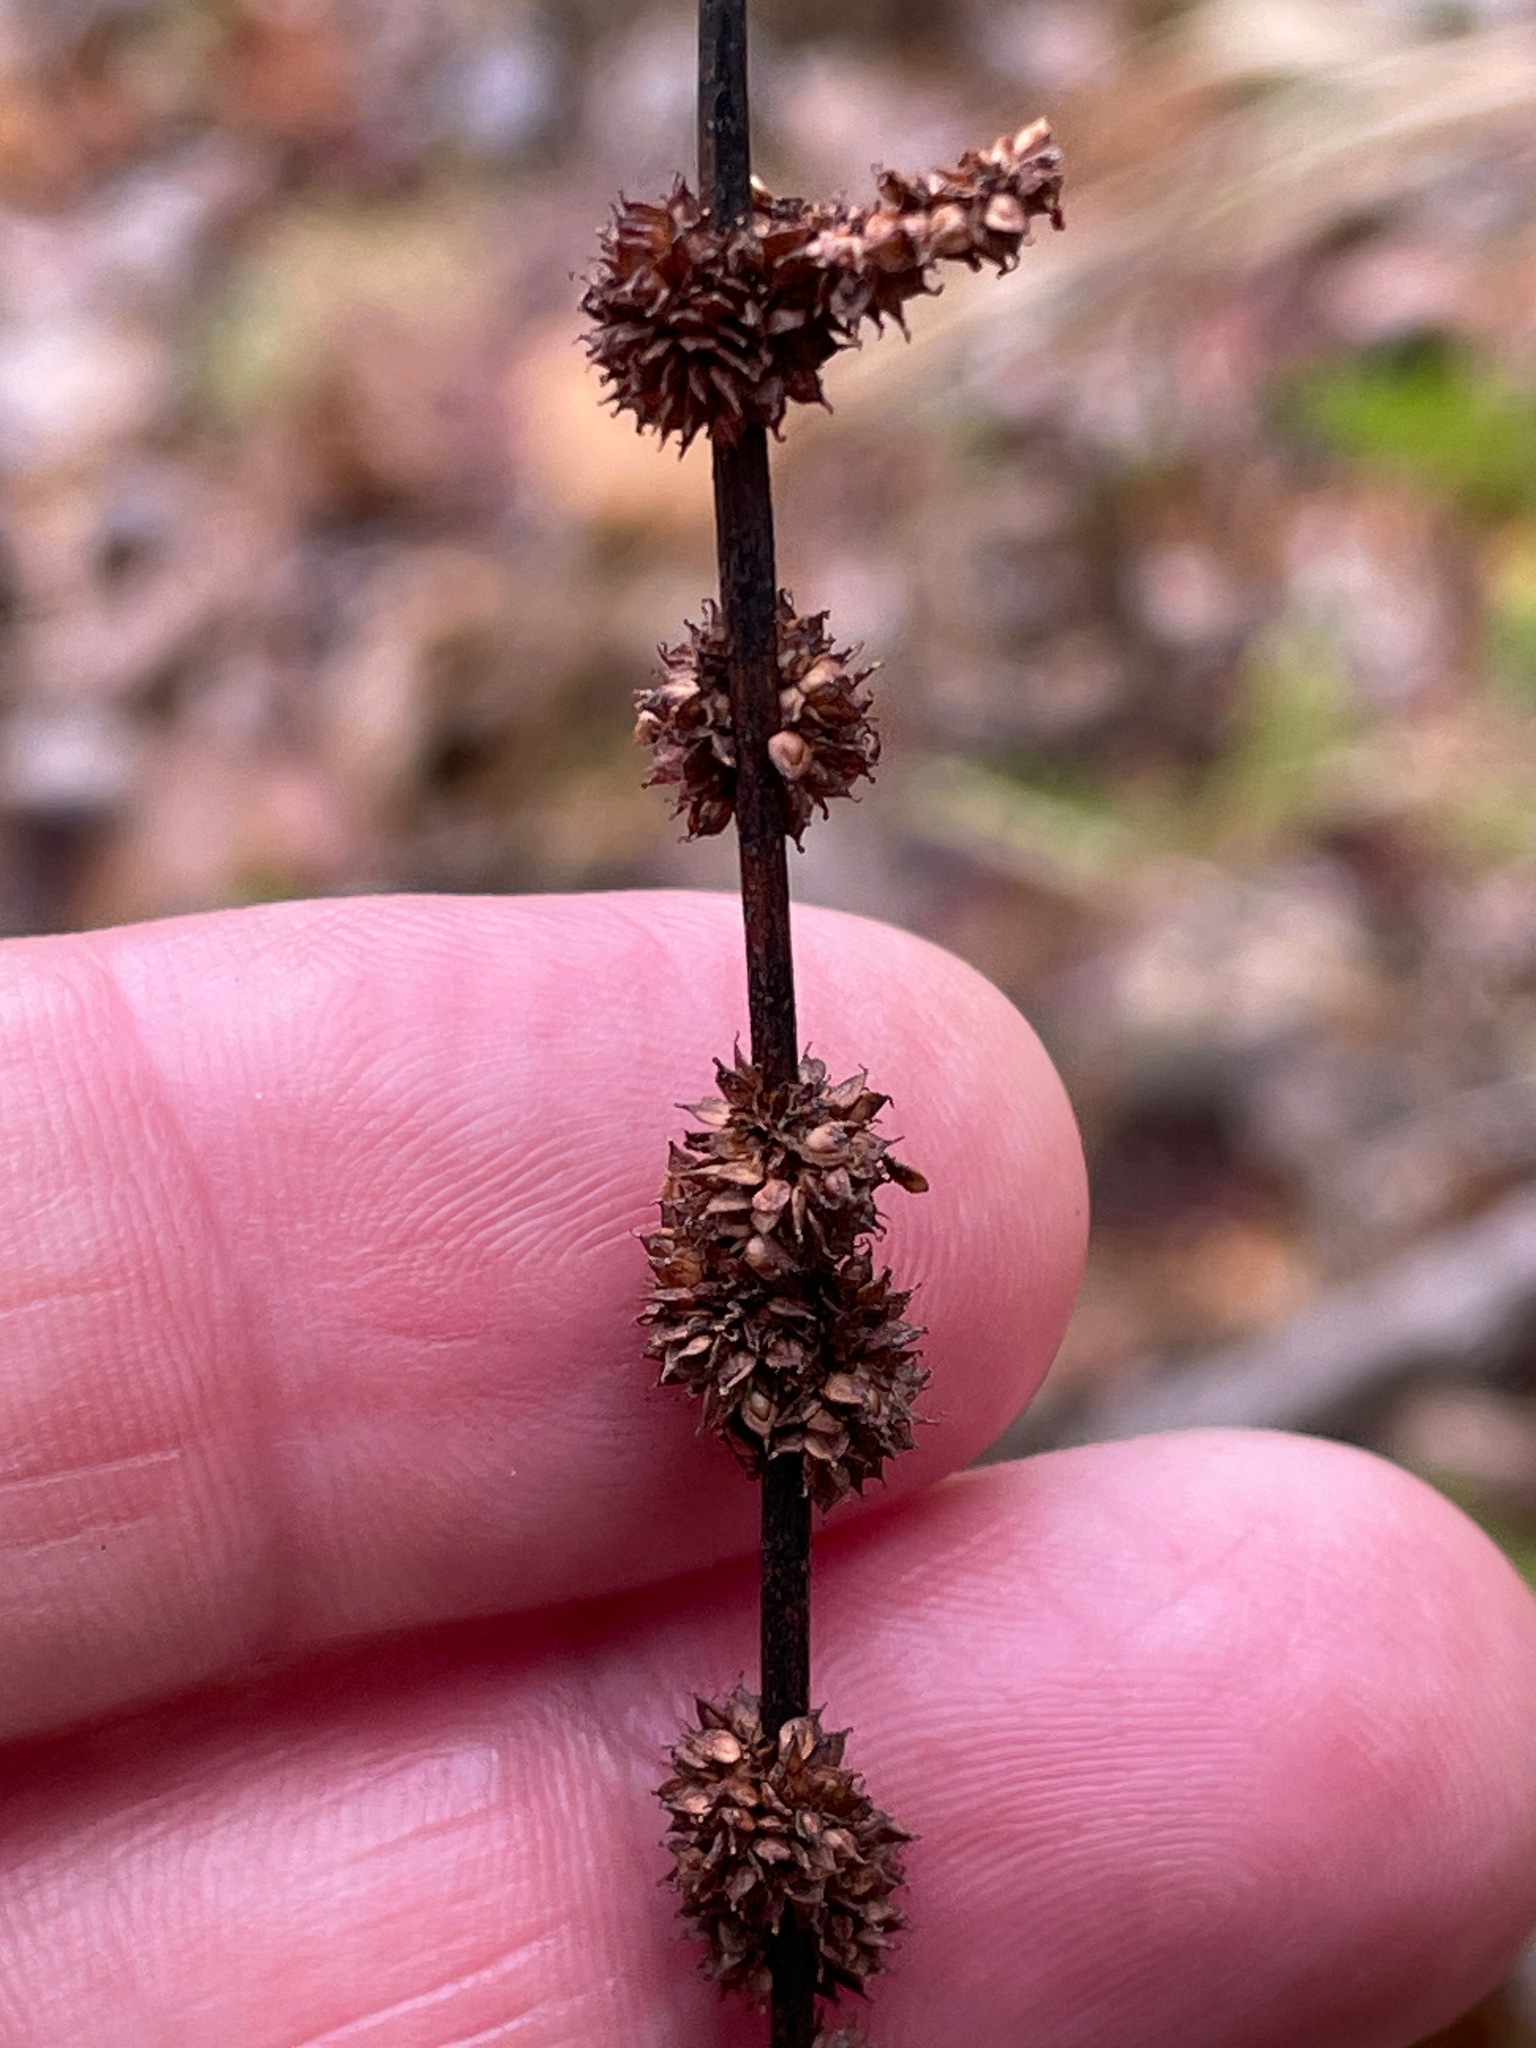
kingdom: Plantae
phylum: Tracheophyta
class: Magnoliopsida
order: Rosales
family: Urticaceae
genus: Boehmeria
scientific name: Boehmeria cylindrica
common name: Bog-hemp
